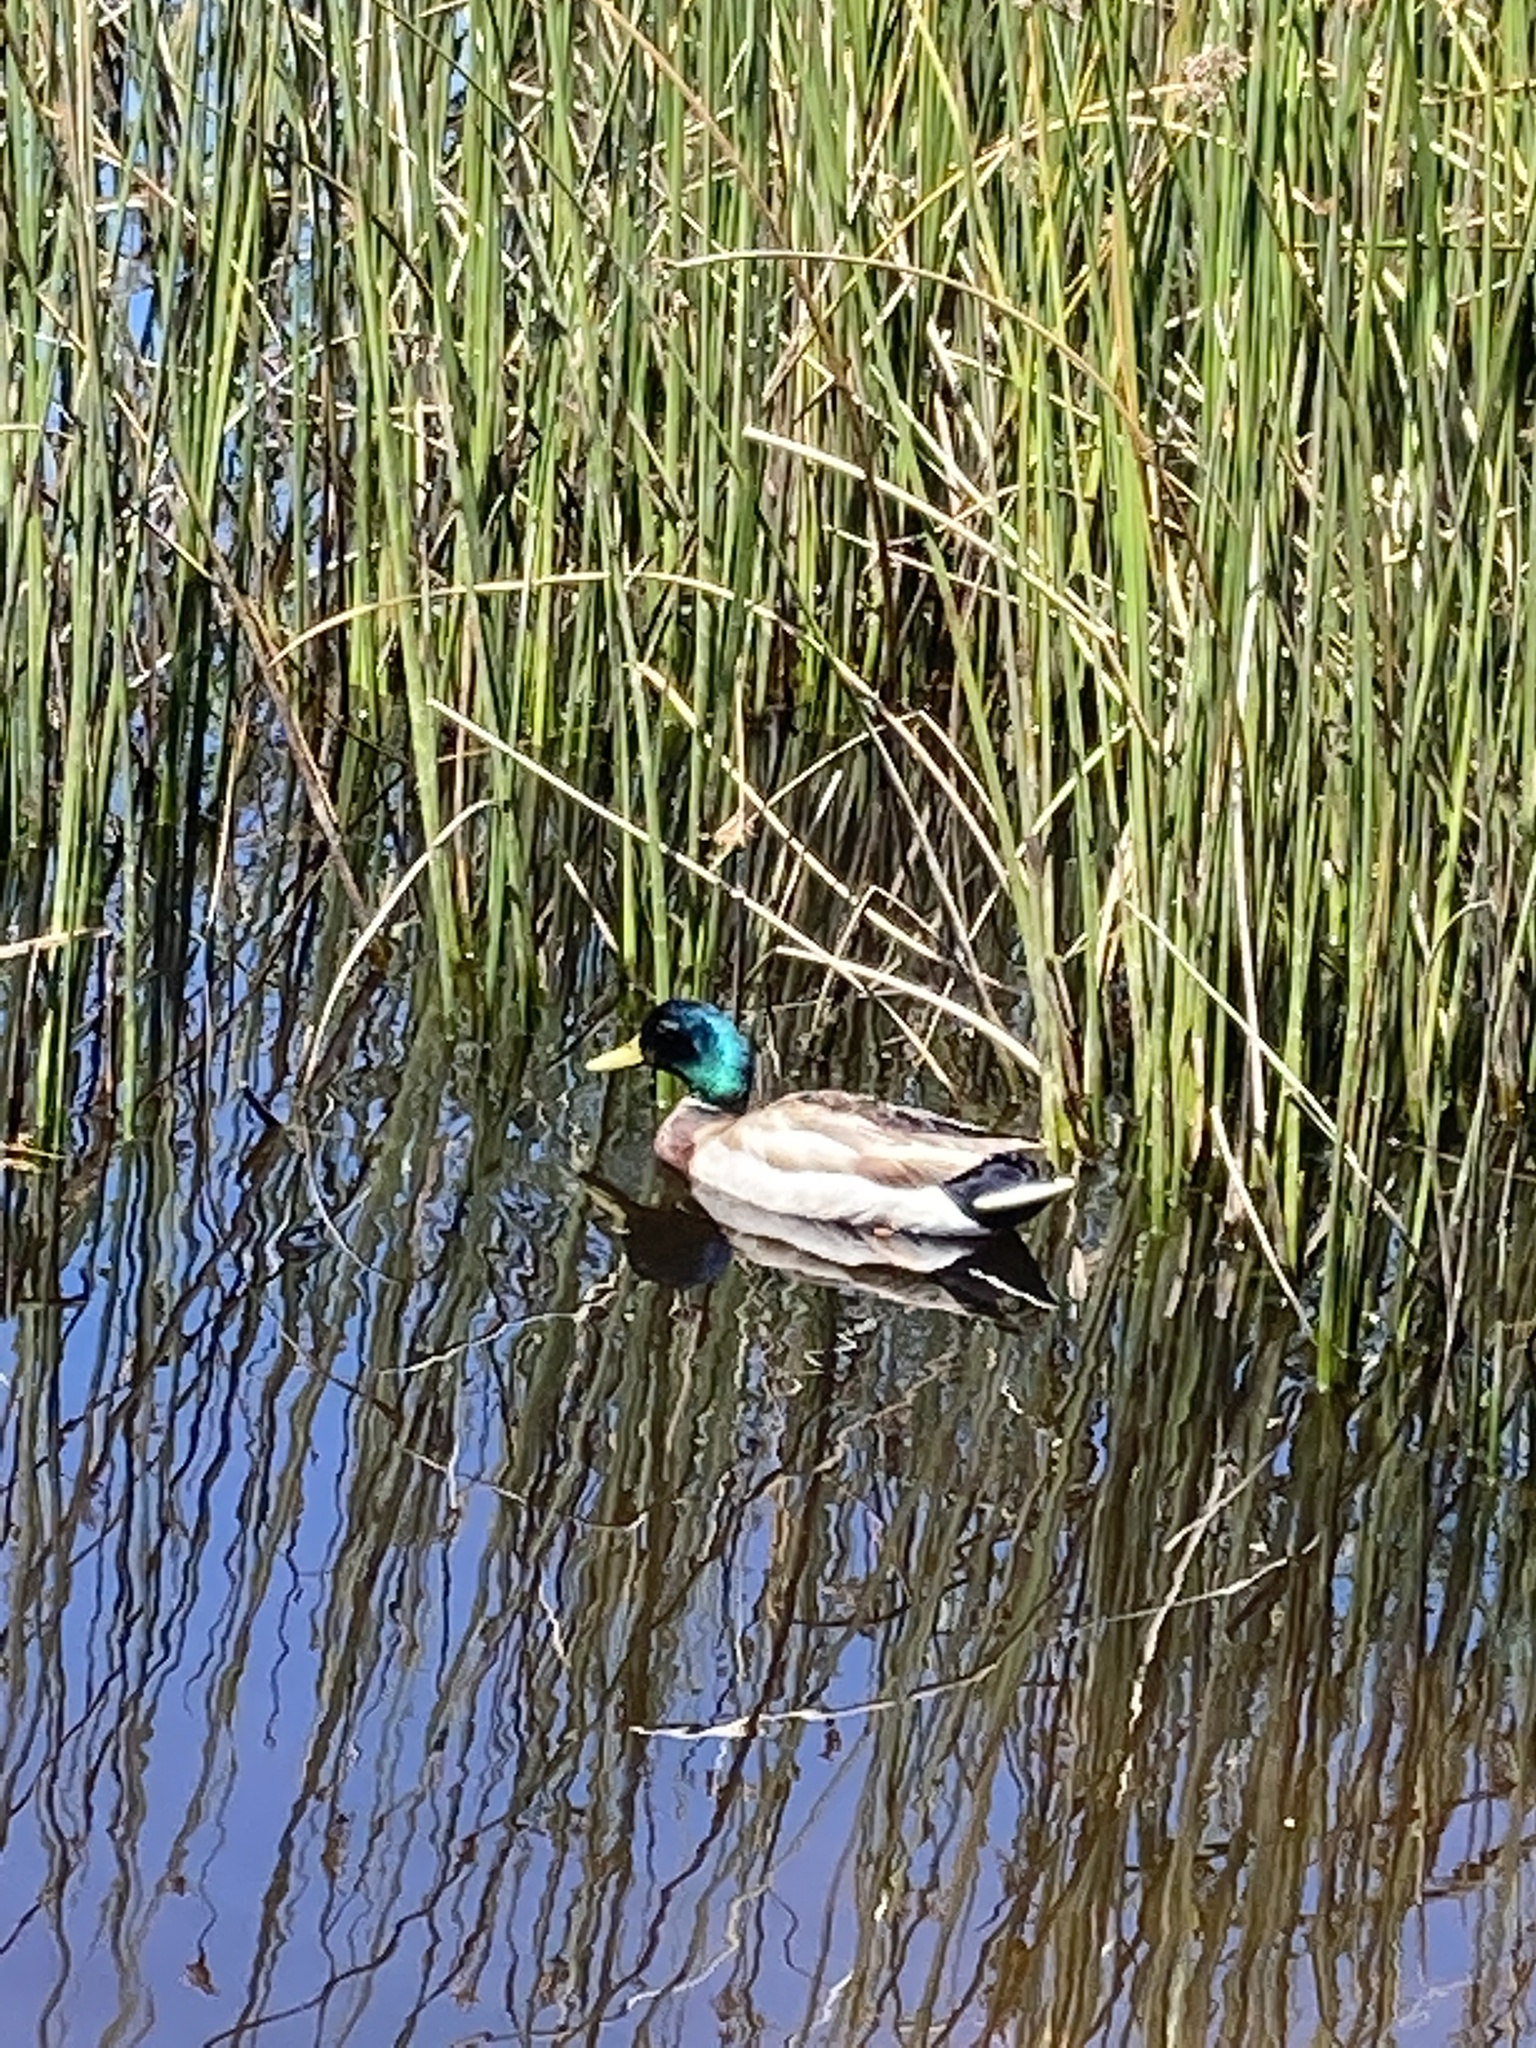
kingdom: Animalia
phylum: Chordata
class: Aves
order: Anseriformes
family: Anatidae
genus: Anas
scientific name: Anas platyrhynchos
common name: Mallard
